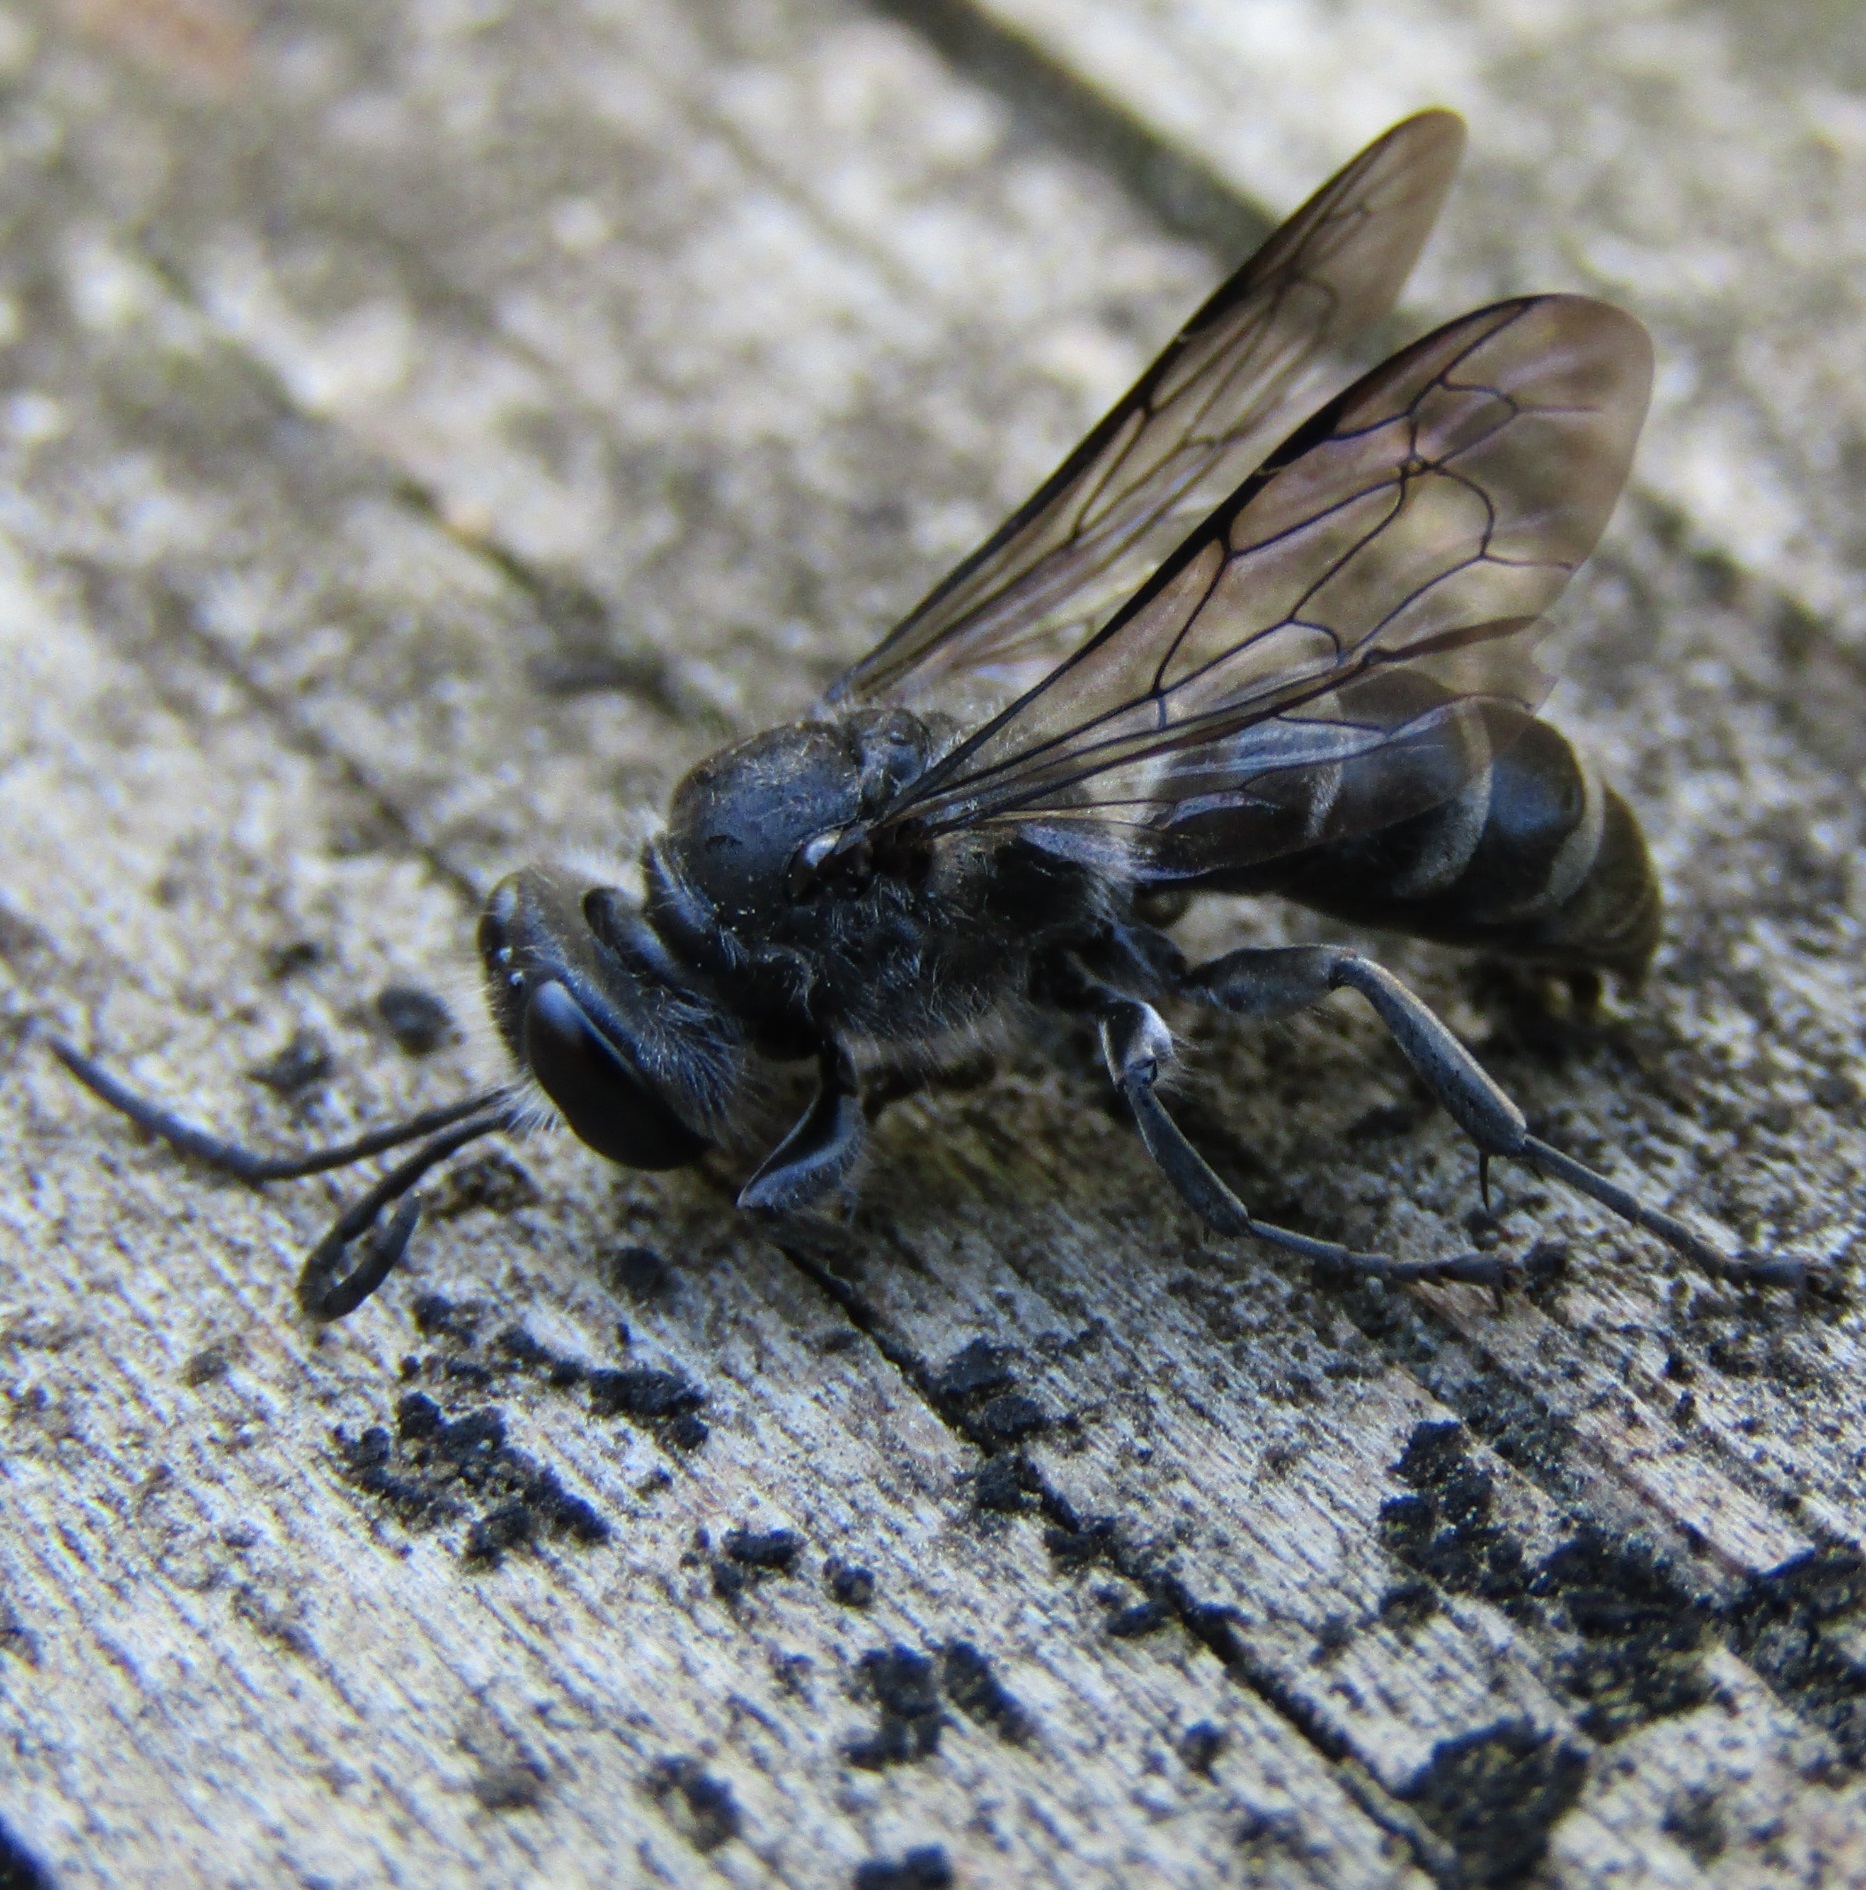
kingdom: Animalia
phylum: Arthropoda
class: Insecta
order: Hymenoptera
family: Crabronidae
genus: Pison
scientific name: Pison spinolae
